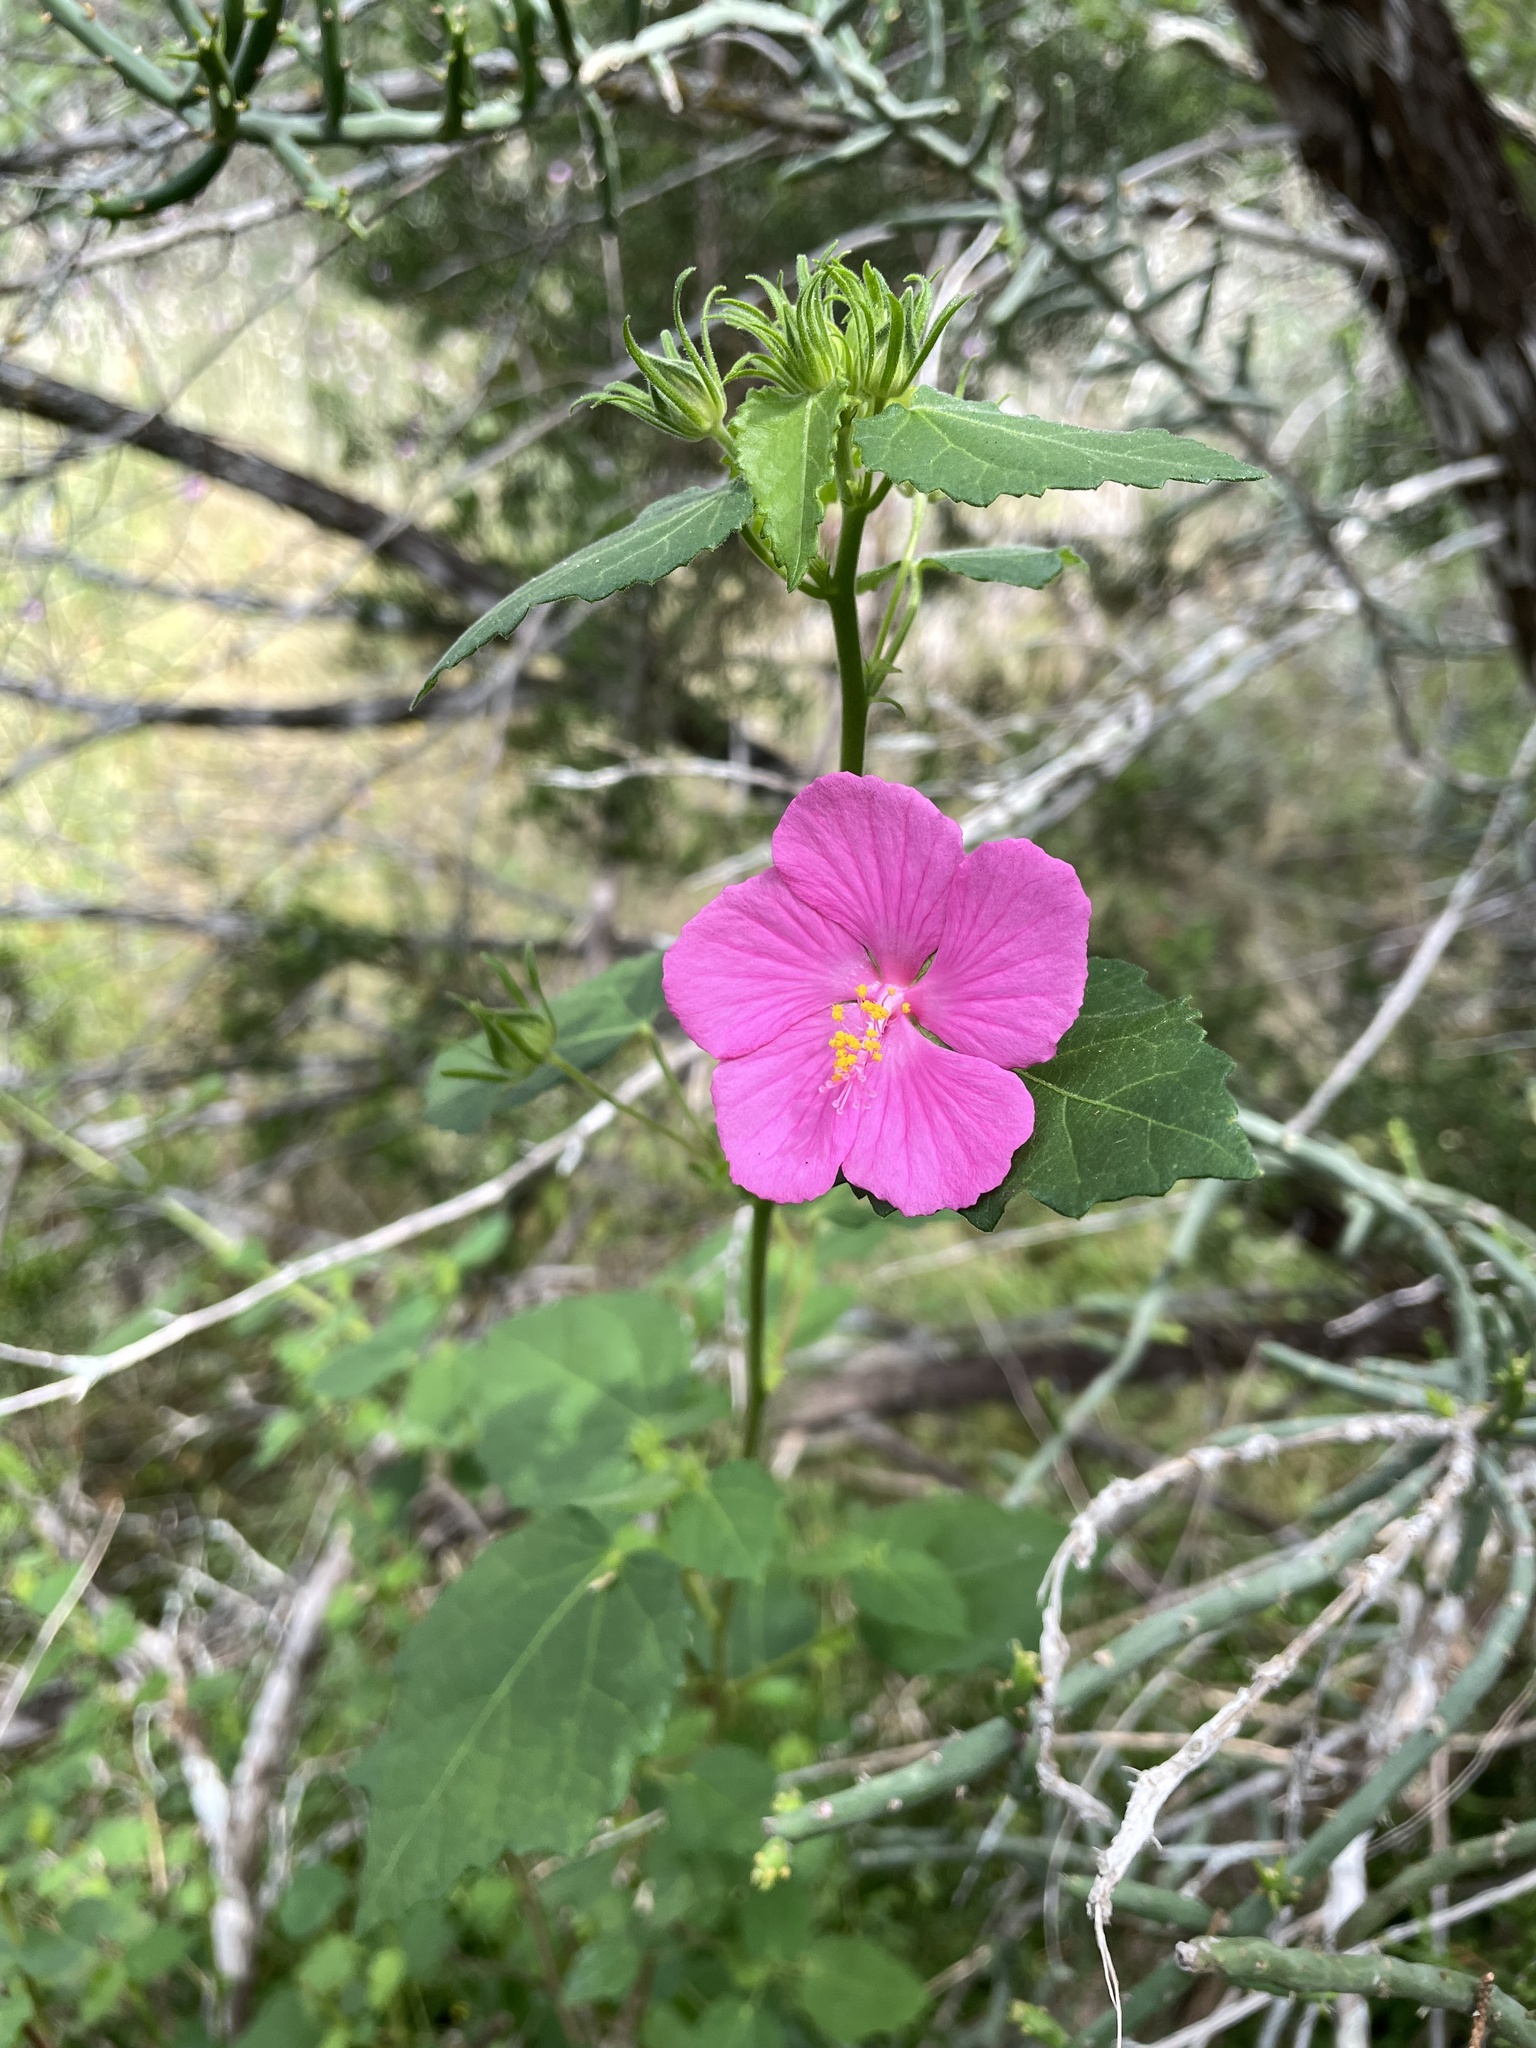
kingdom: Plantae
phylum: Tracheophyta
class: Magnoliopsida
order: Malvales
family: Malvaceae
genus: Pavonia
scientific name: Pavonia lasiopetala
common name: Texas swamp-mallow
